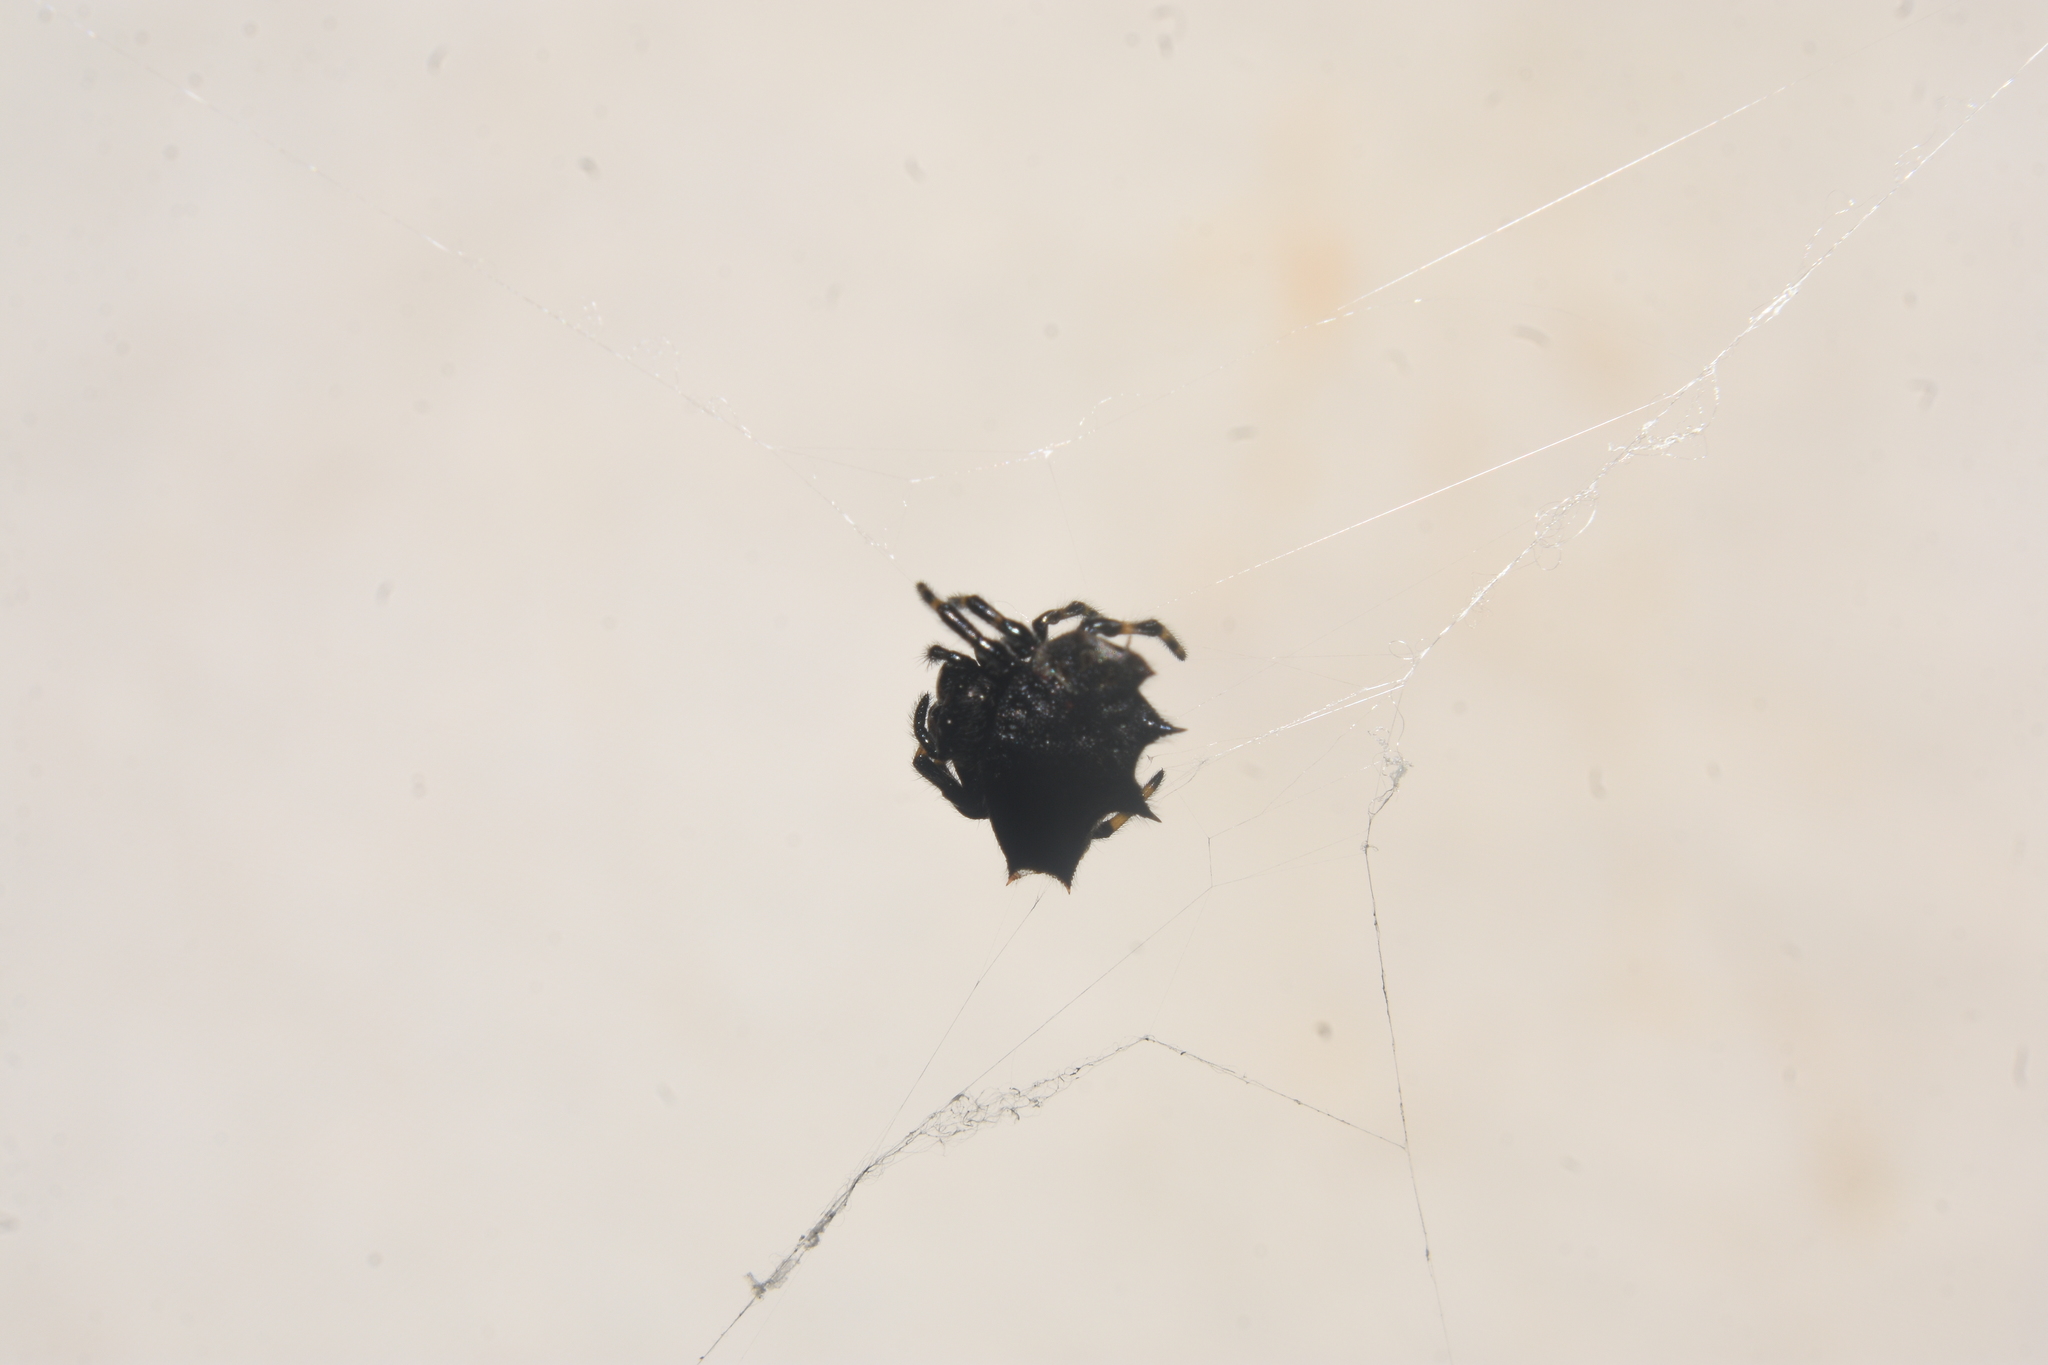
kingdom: Animalia
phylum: Arthropoda
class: Arachnida
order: Araneae
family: Araneidae
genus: Gasteracantha
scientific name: Gasteracantha cancriformis
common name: Orb weavers
